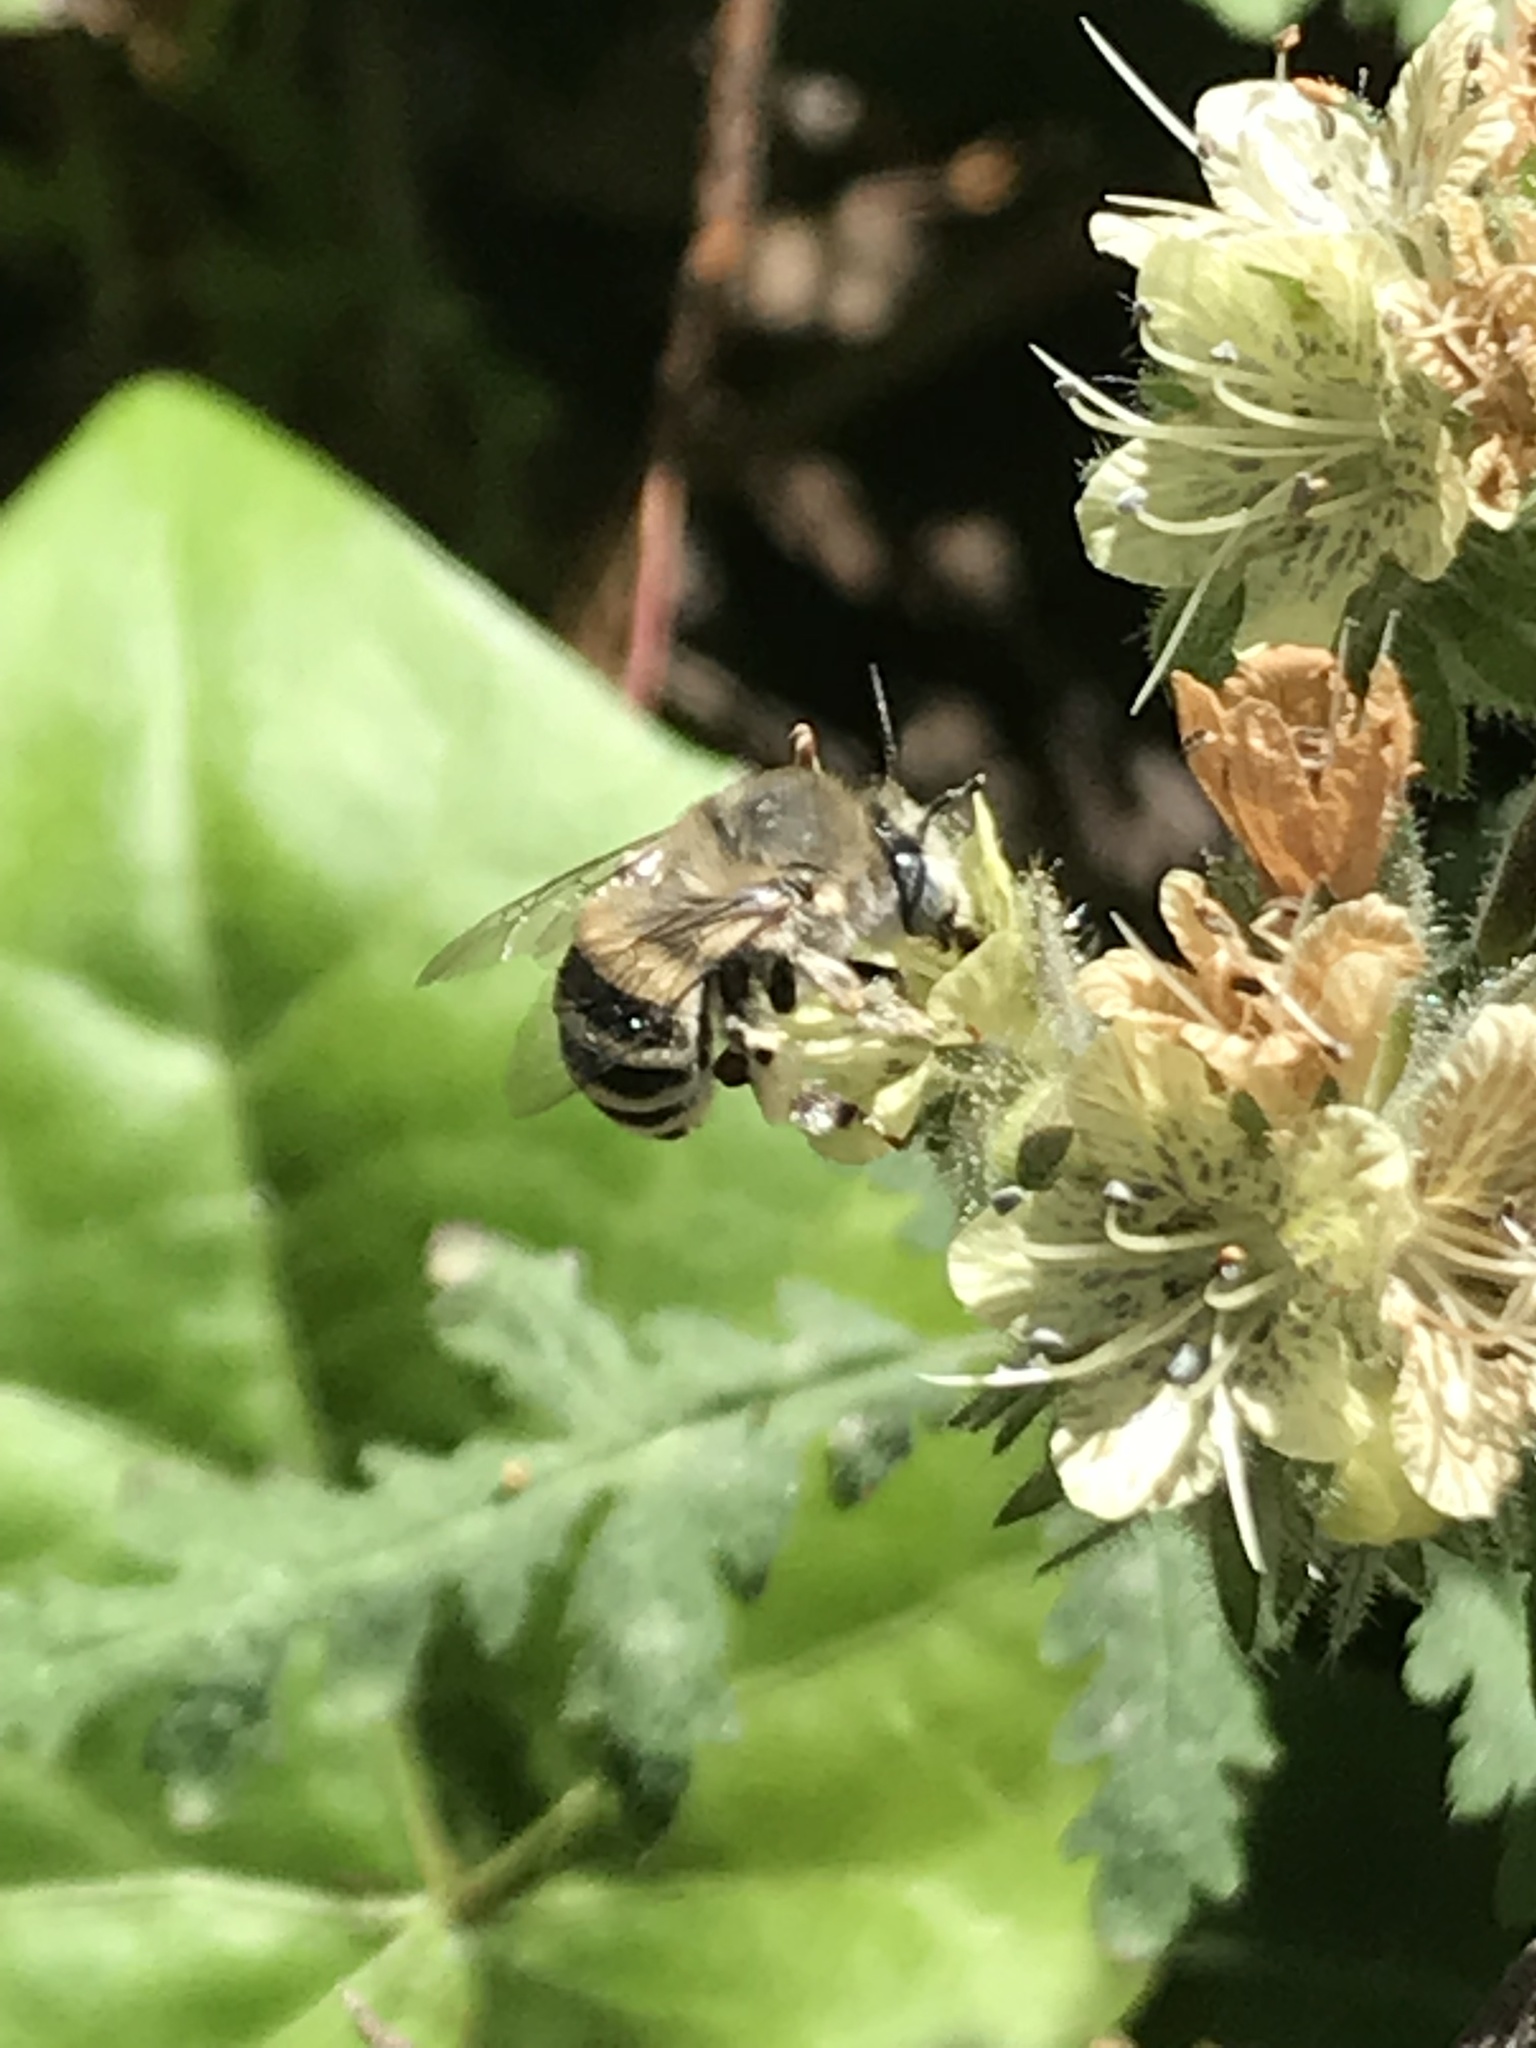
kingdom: Animalia
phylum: Arthropoda
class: Insecta
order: Hymenoptera
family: Apidae
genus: Anthophora
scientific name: Anthophora urbana
